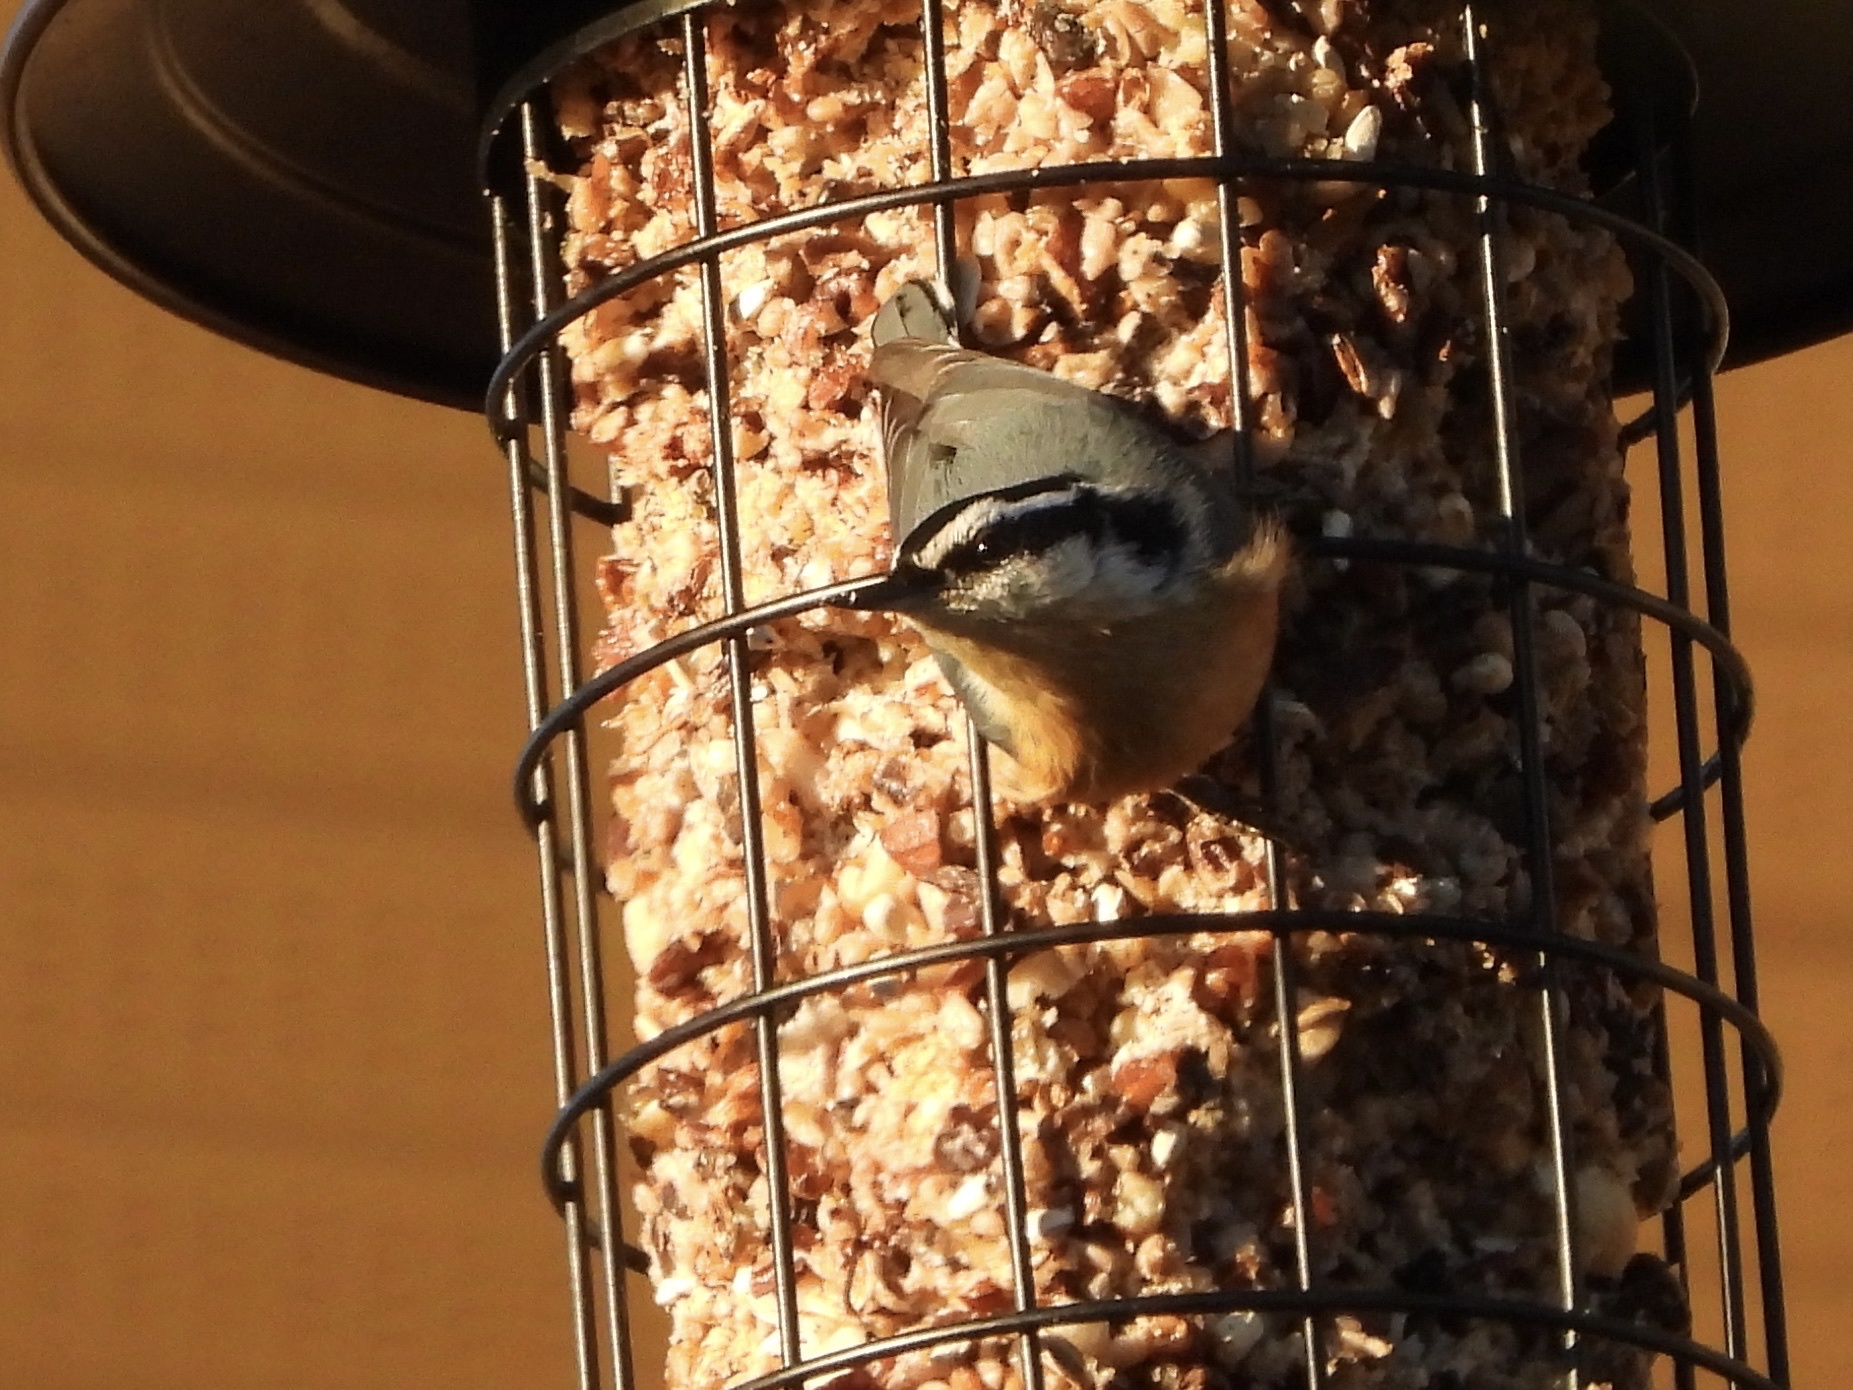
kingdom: Animalia
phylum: Chordata
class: Aves
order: Passeriformes
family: Sittidae
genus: Sitta
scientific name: Sitta canadensis
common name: Red-breasted nuthatch
